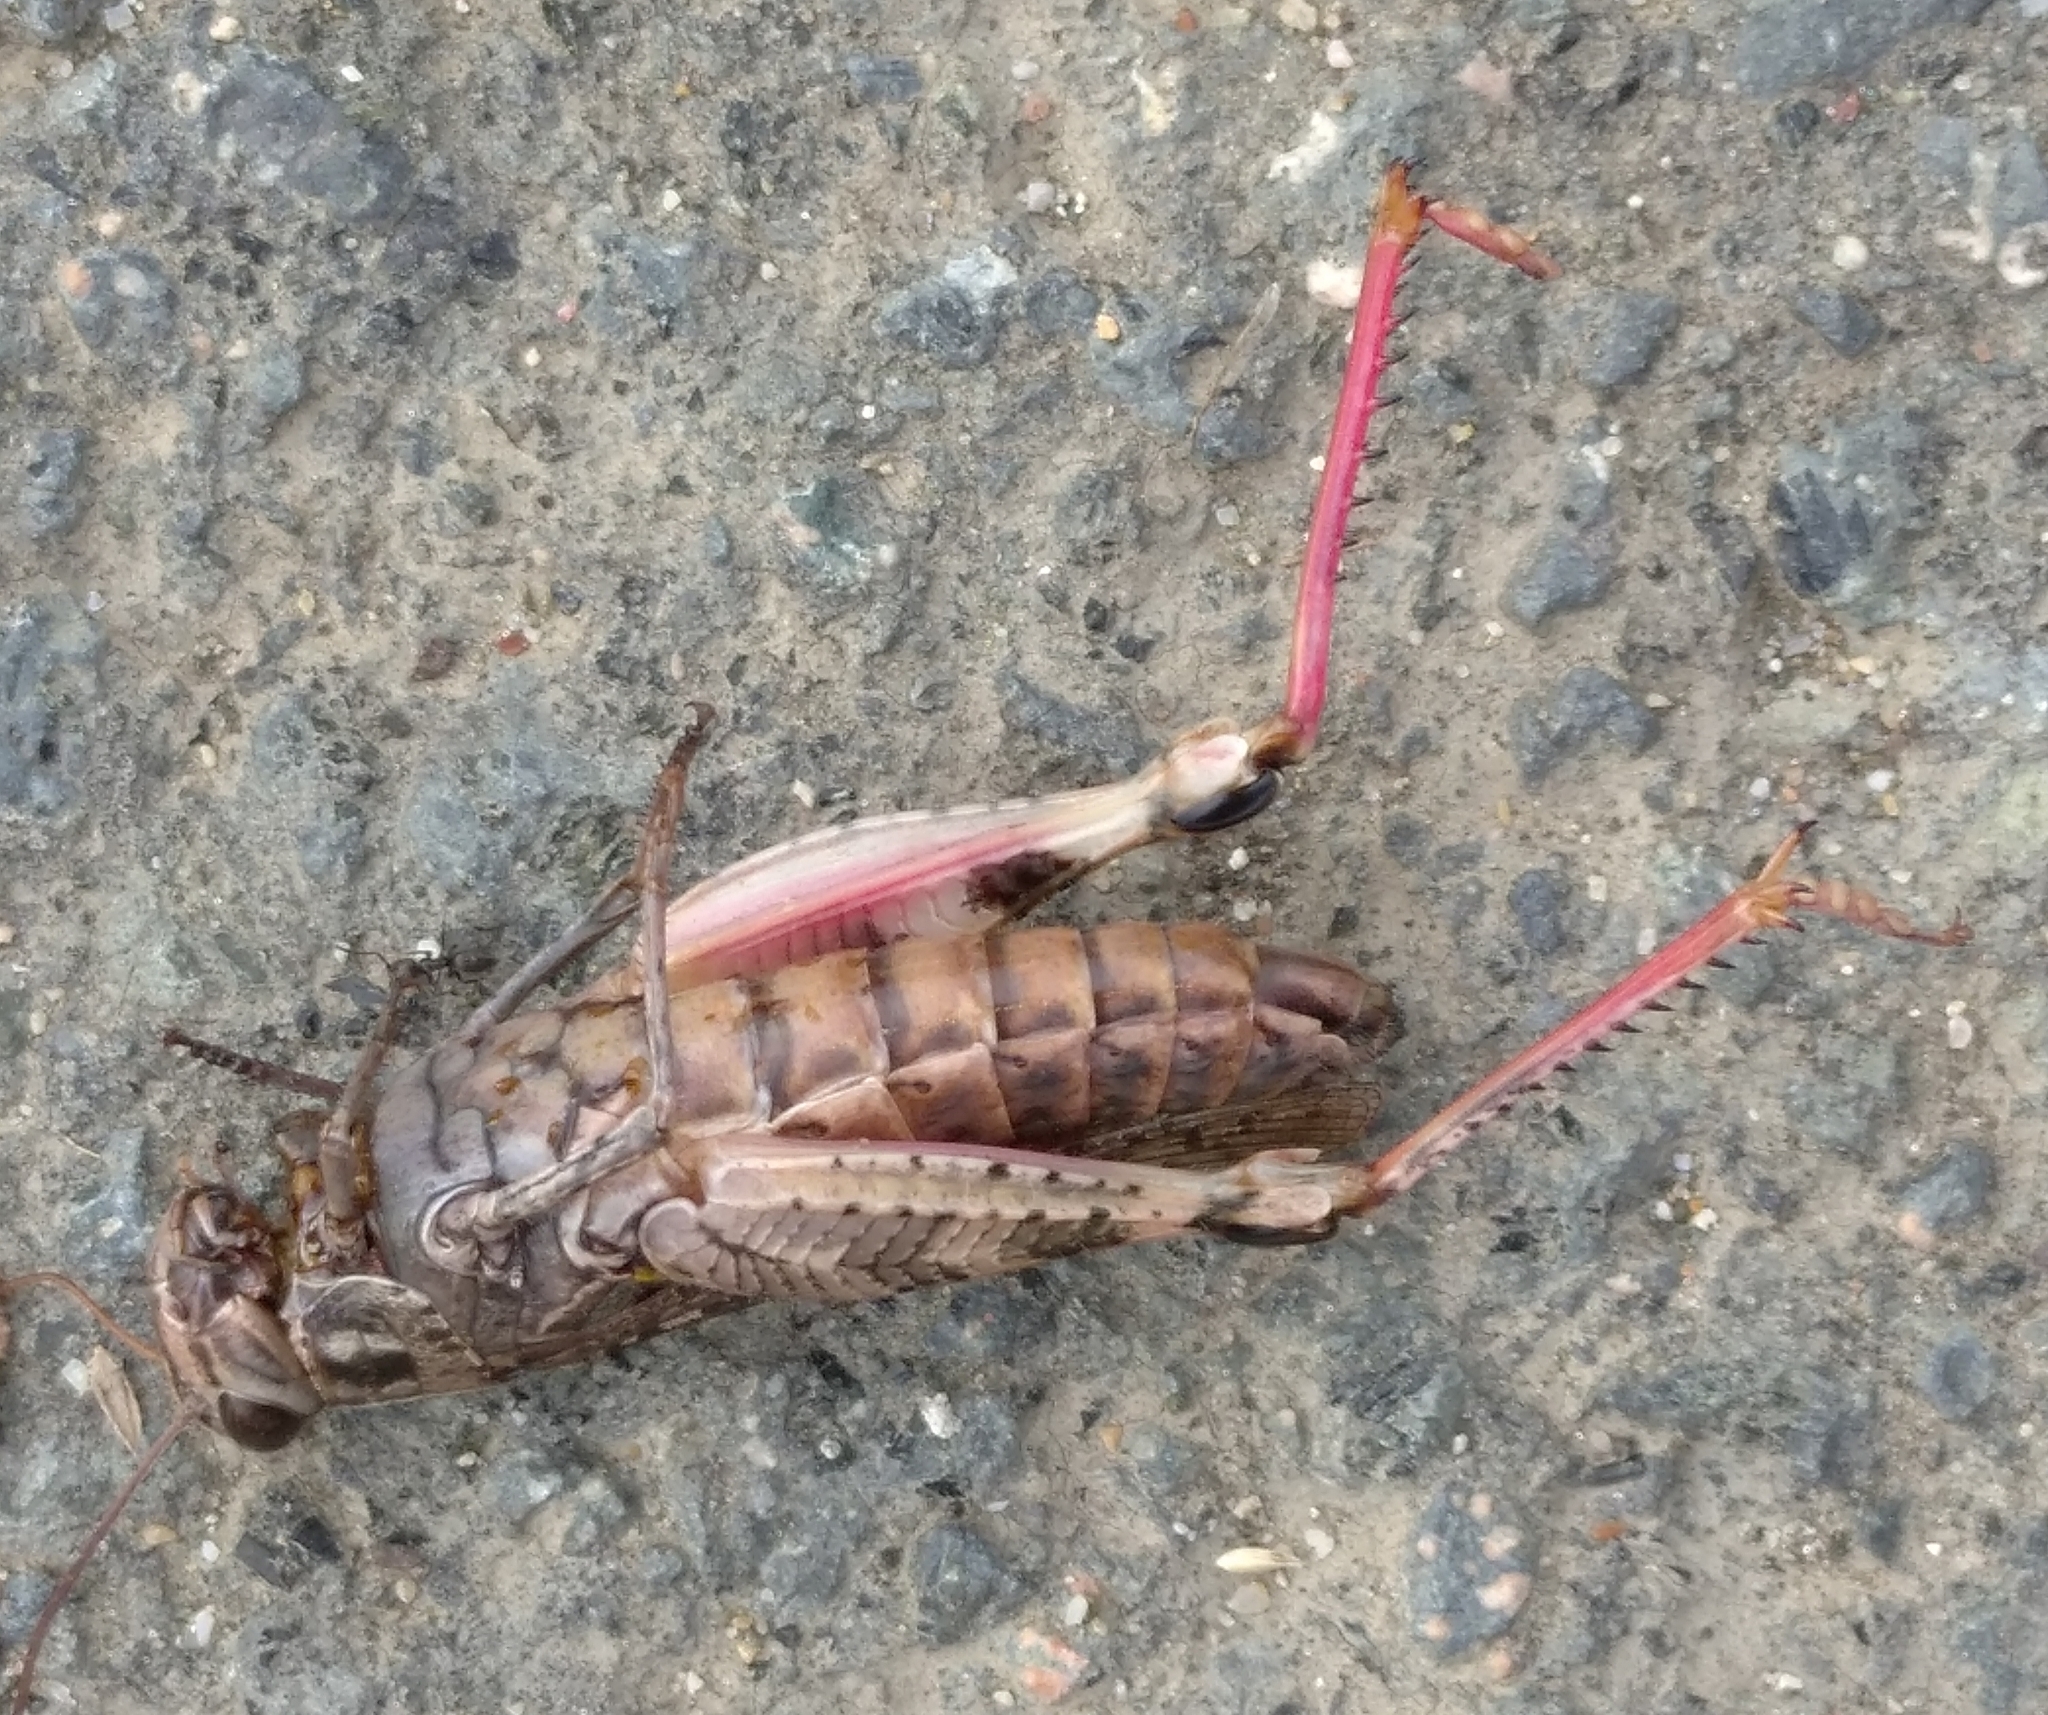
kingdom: Animalia
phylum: Arthropoda
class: Insecta
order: Orthoptera
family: Acrididae
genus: Calliptamus
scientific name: Calliptamus italicus
